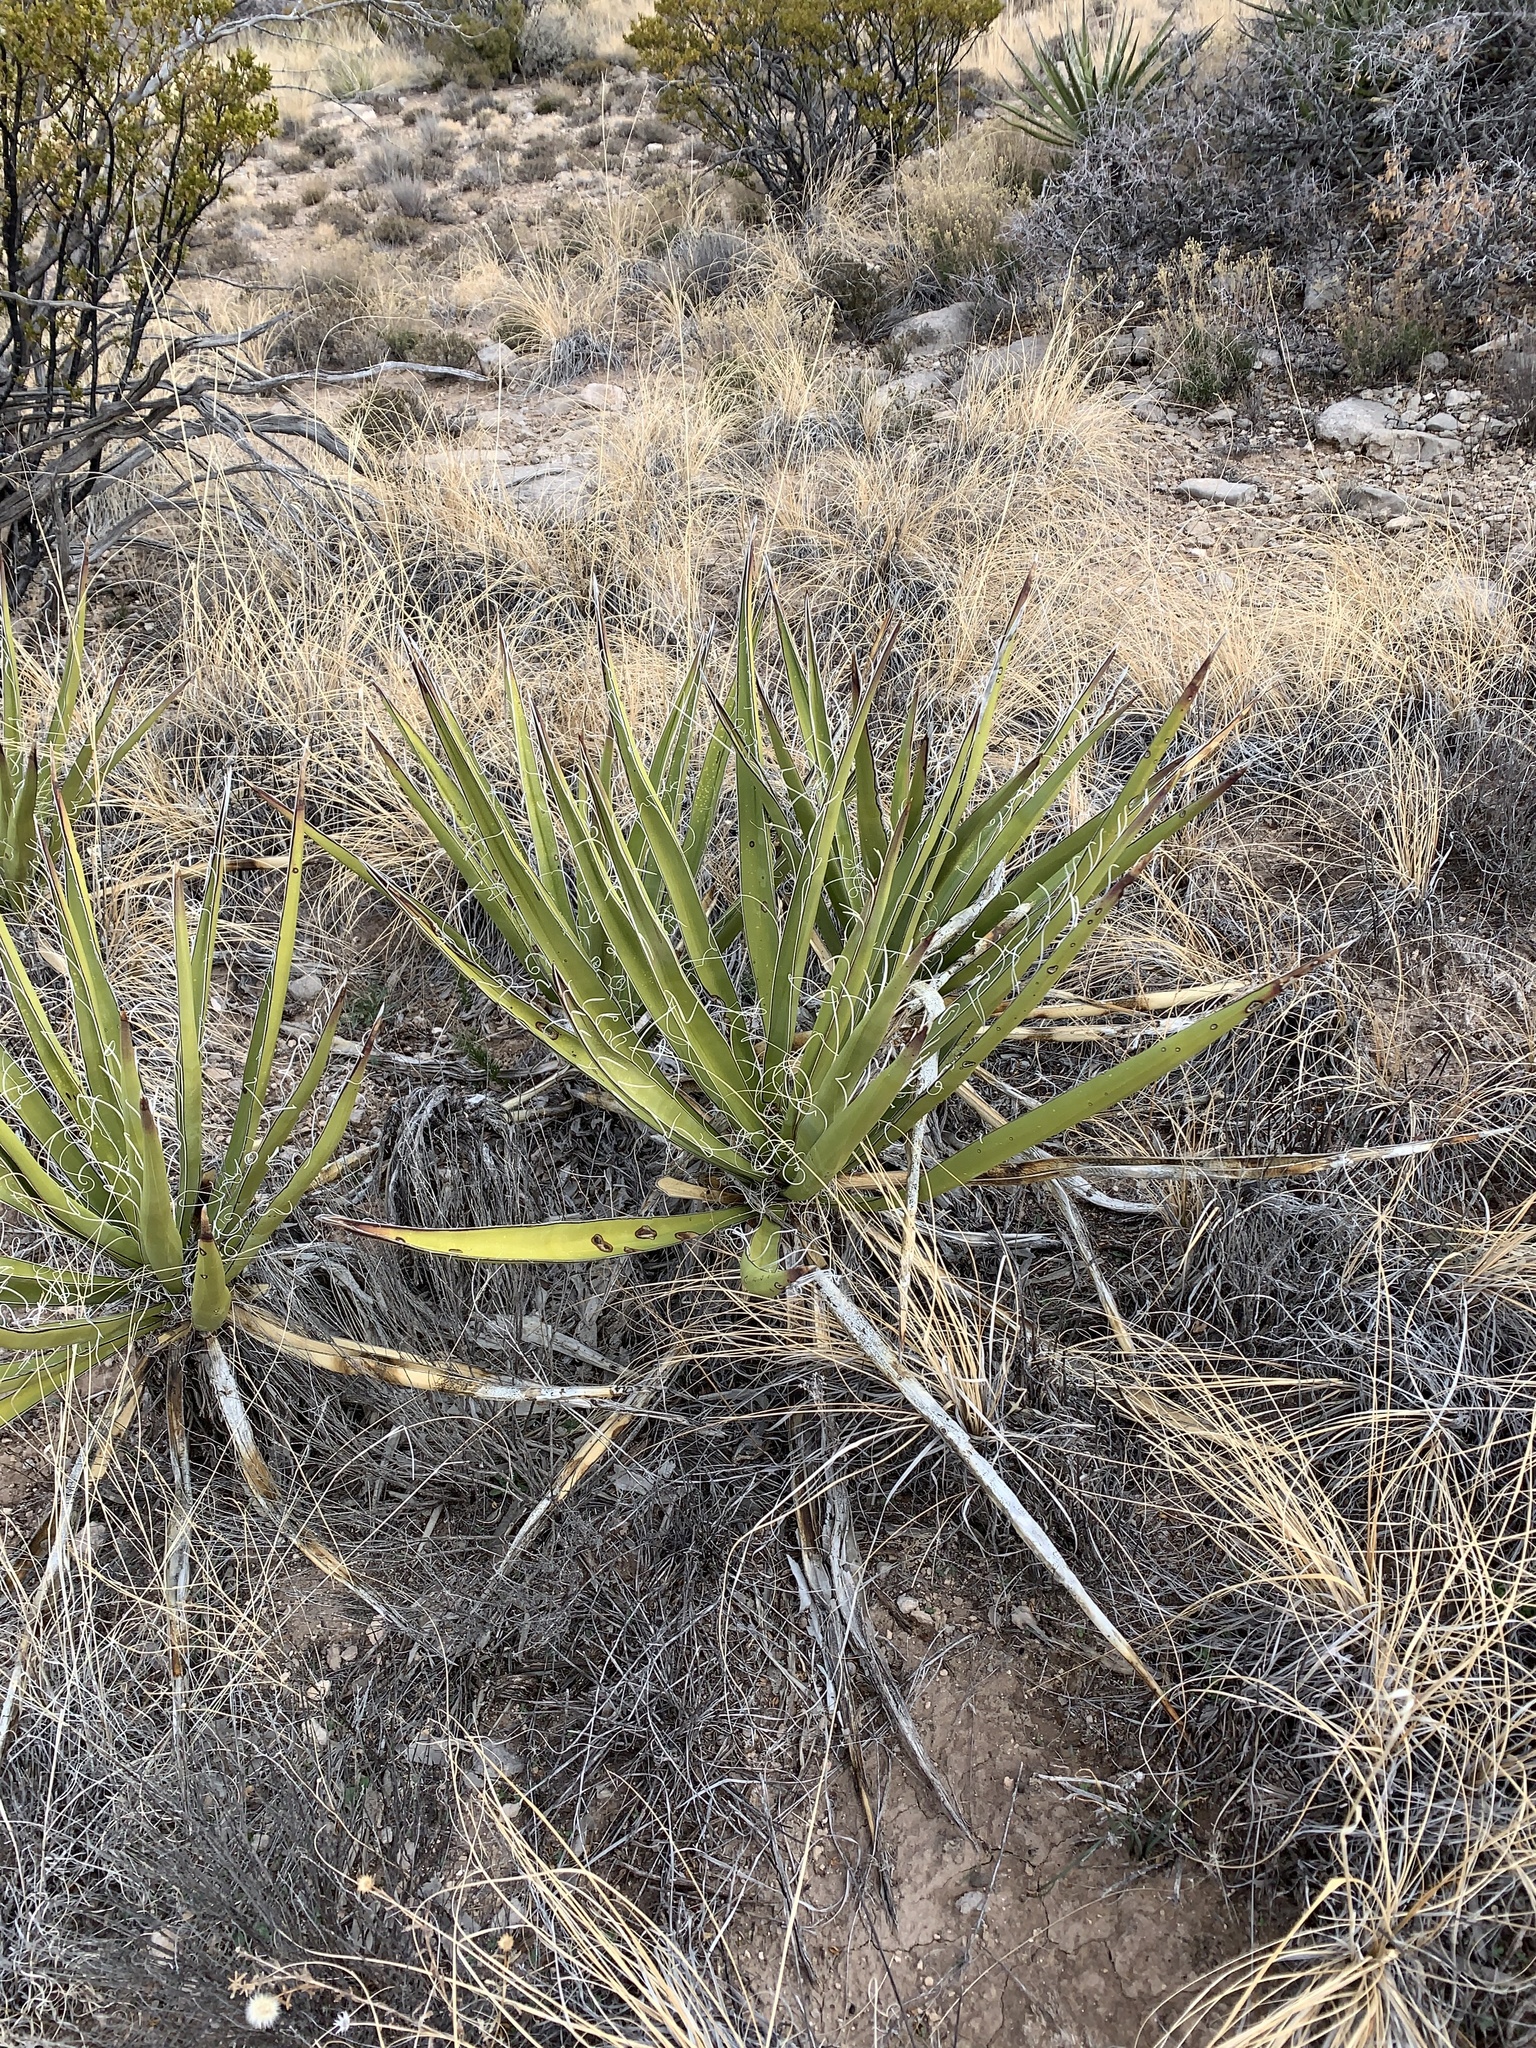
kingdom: Plantae
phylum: Tracheophyta
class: Liliopsida
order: Asparagales
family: Asparagaceae
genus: Yucca
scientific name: Yucca baccata
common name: Banana yucca
